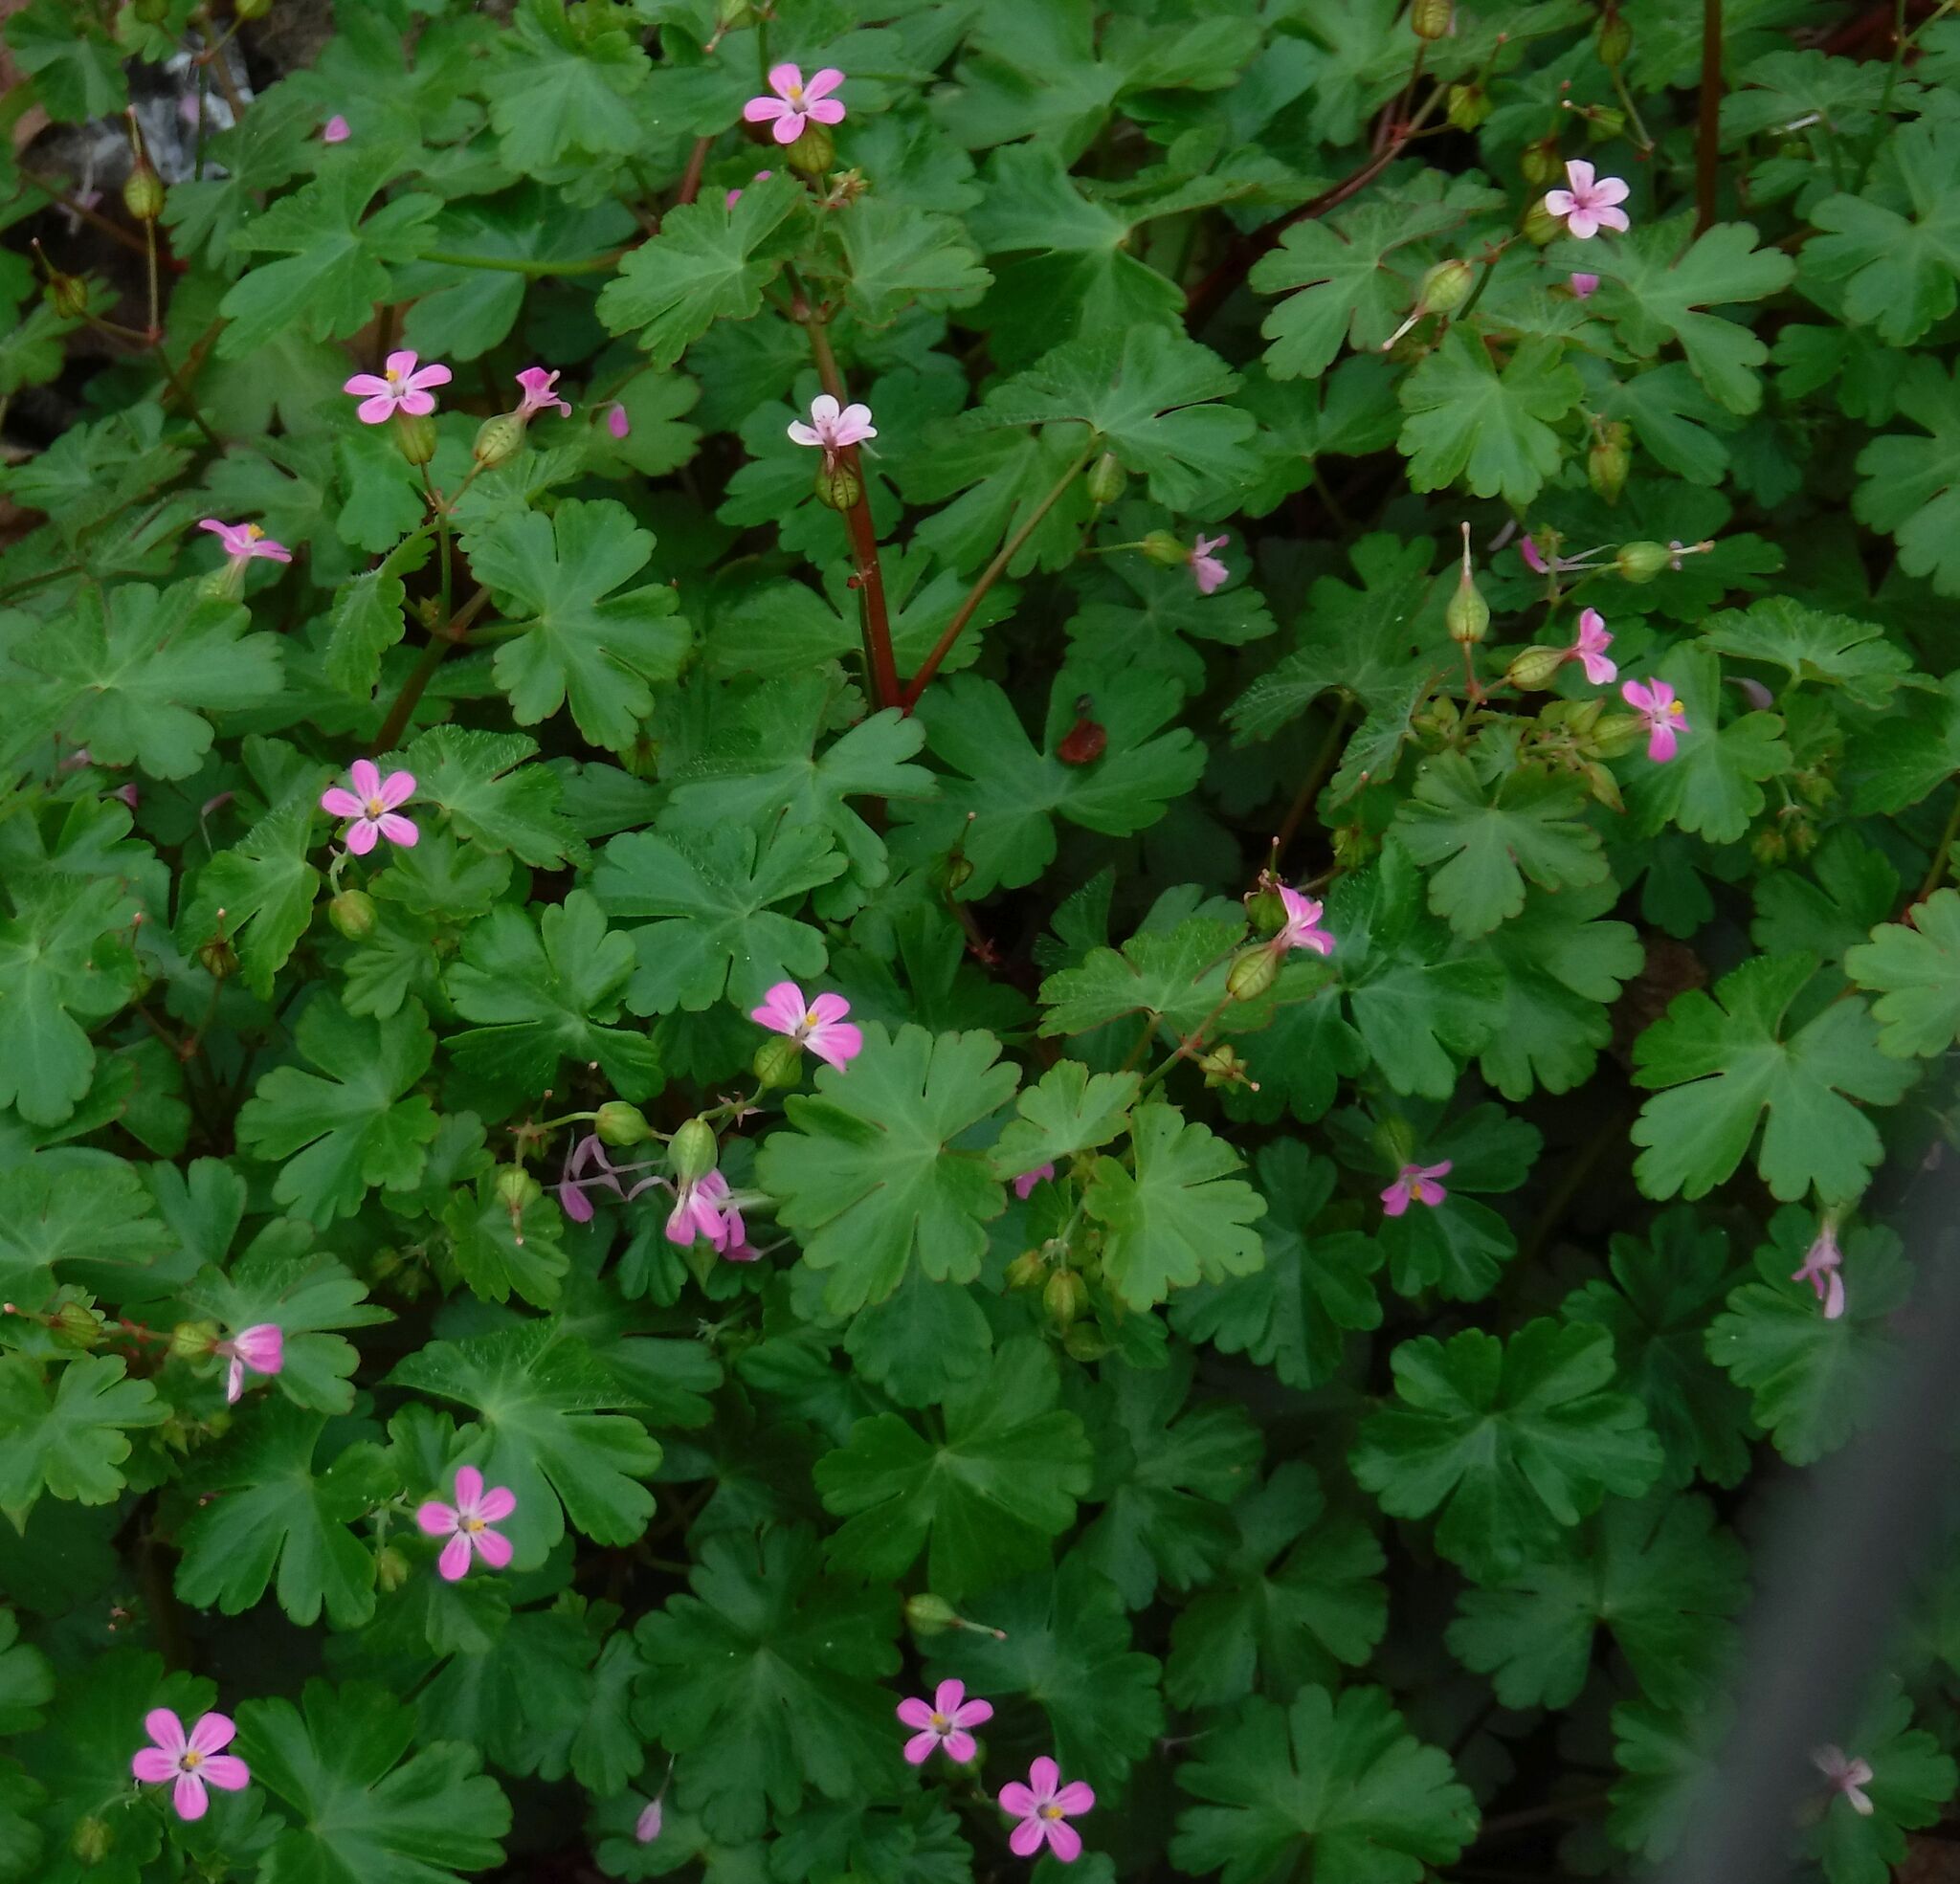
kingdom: Plantae
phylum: Tracheophyta
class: Magnoliopsida
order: Geraniales
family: Geraniaceae
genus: Geranium
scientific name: Geranium lucidum
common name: Shining crane's-bill
